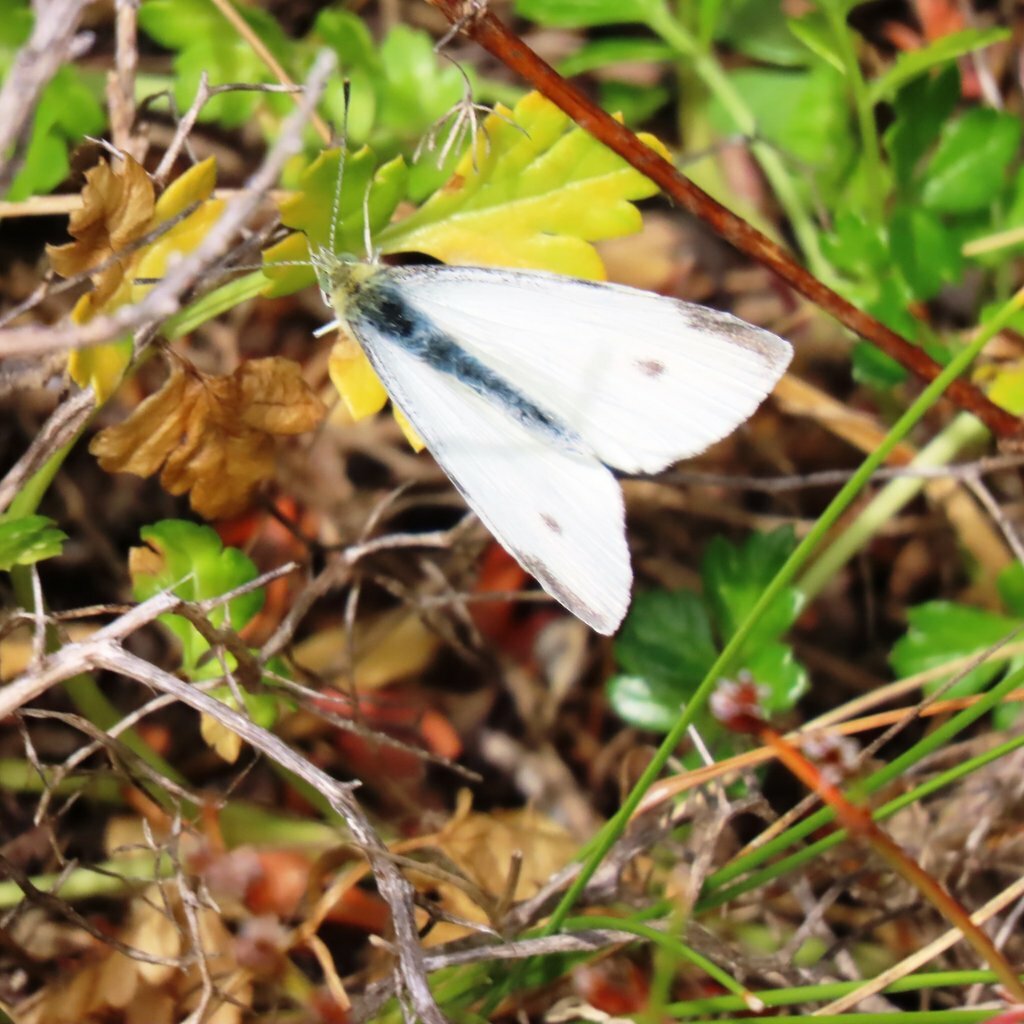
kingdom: Animalia
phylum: Arthropoda
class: Insecta
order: Lepidoptera
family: Pieridae
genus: Pieris
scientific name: Pieris rapae
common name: Small white
